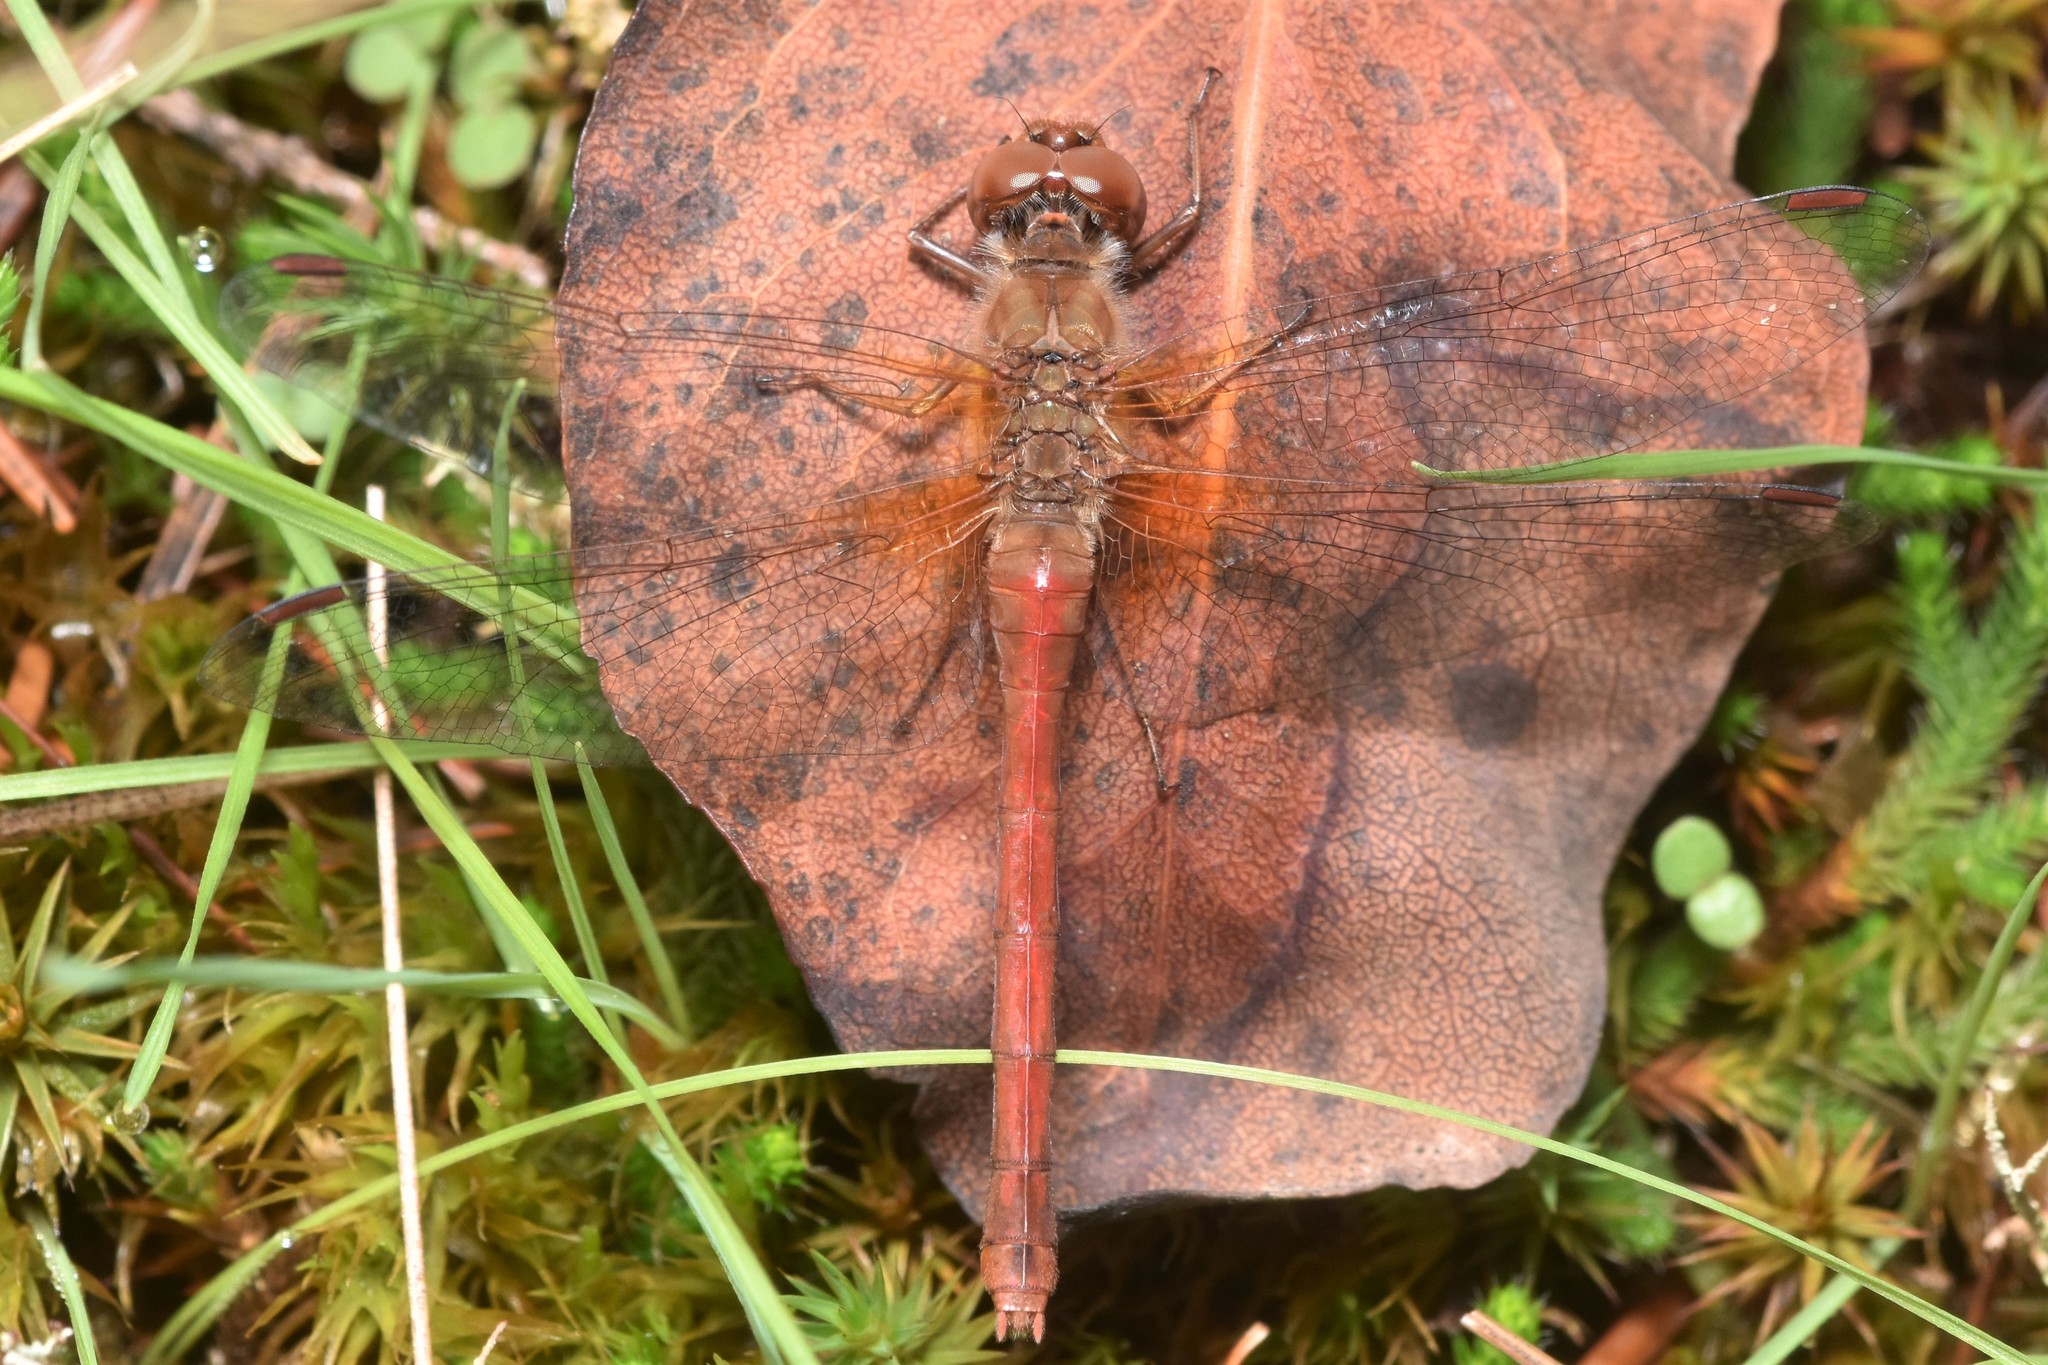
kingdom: Animalia
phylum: Arthropoda
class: Insecta
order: Odonata
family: Libellulidae
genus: Sympetrum
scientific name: Sympetrum vicinum
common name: Autumn meadowhawk
